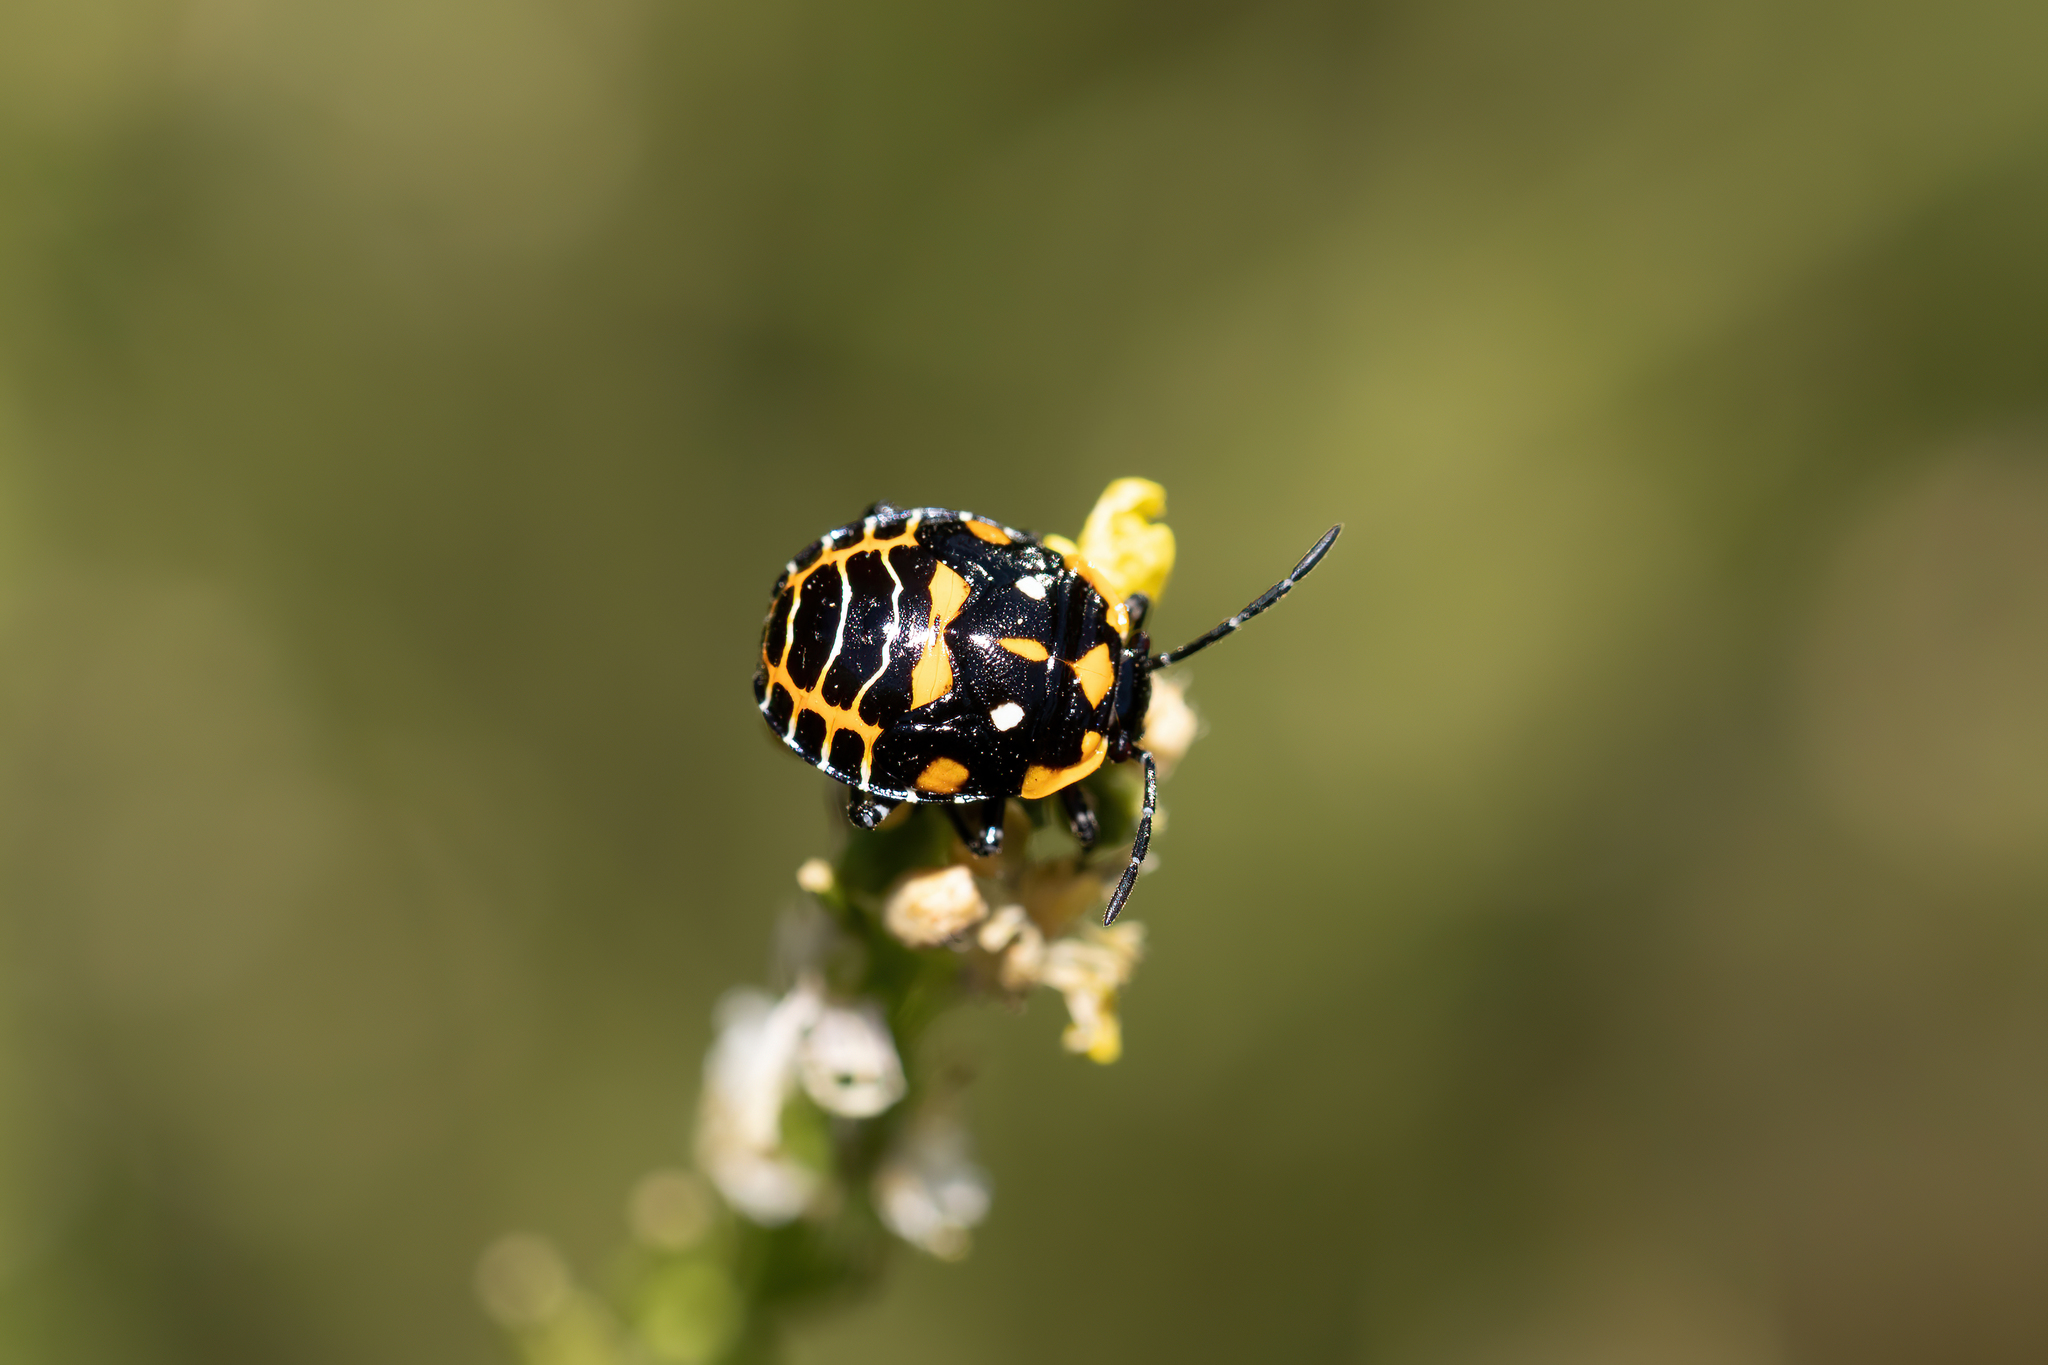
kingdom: Animalia
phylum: Arthropoda
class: Insecta
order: Hemiptera
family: Pentatomidae
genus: Murgantia
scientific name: Murgantia histrionica
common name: Harlequin bug
